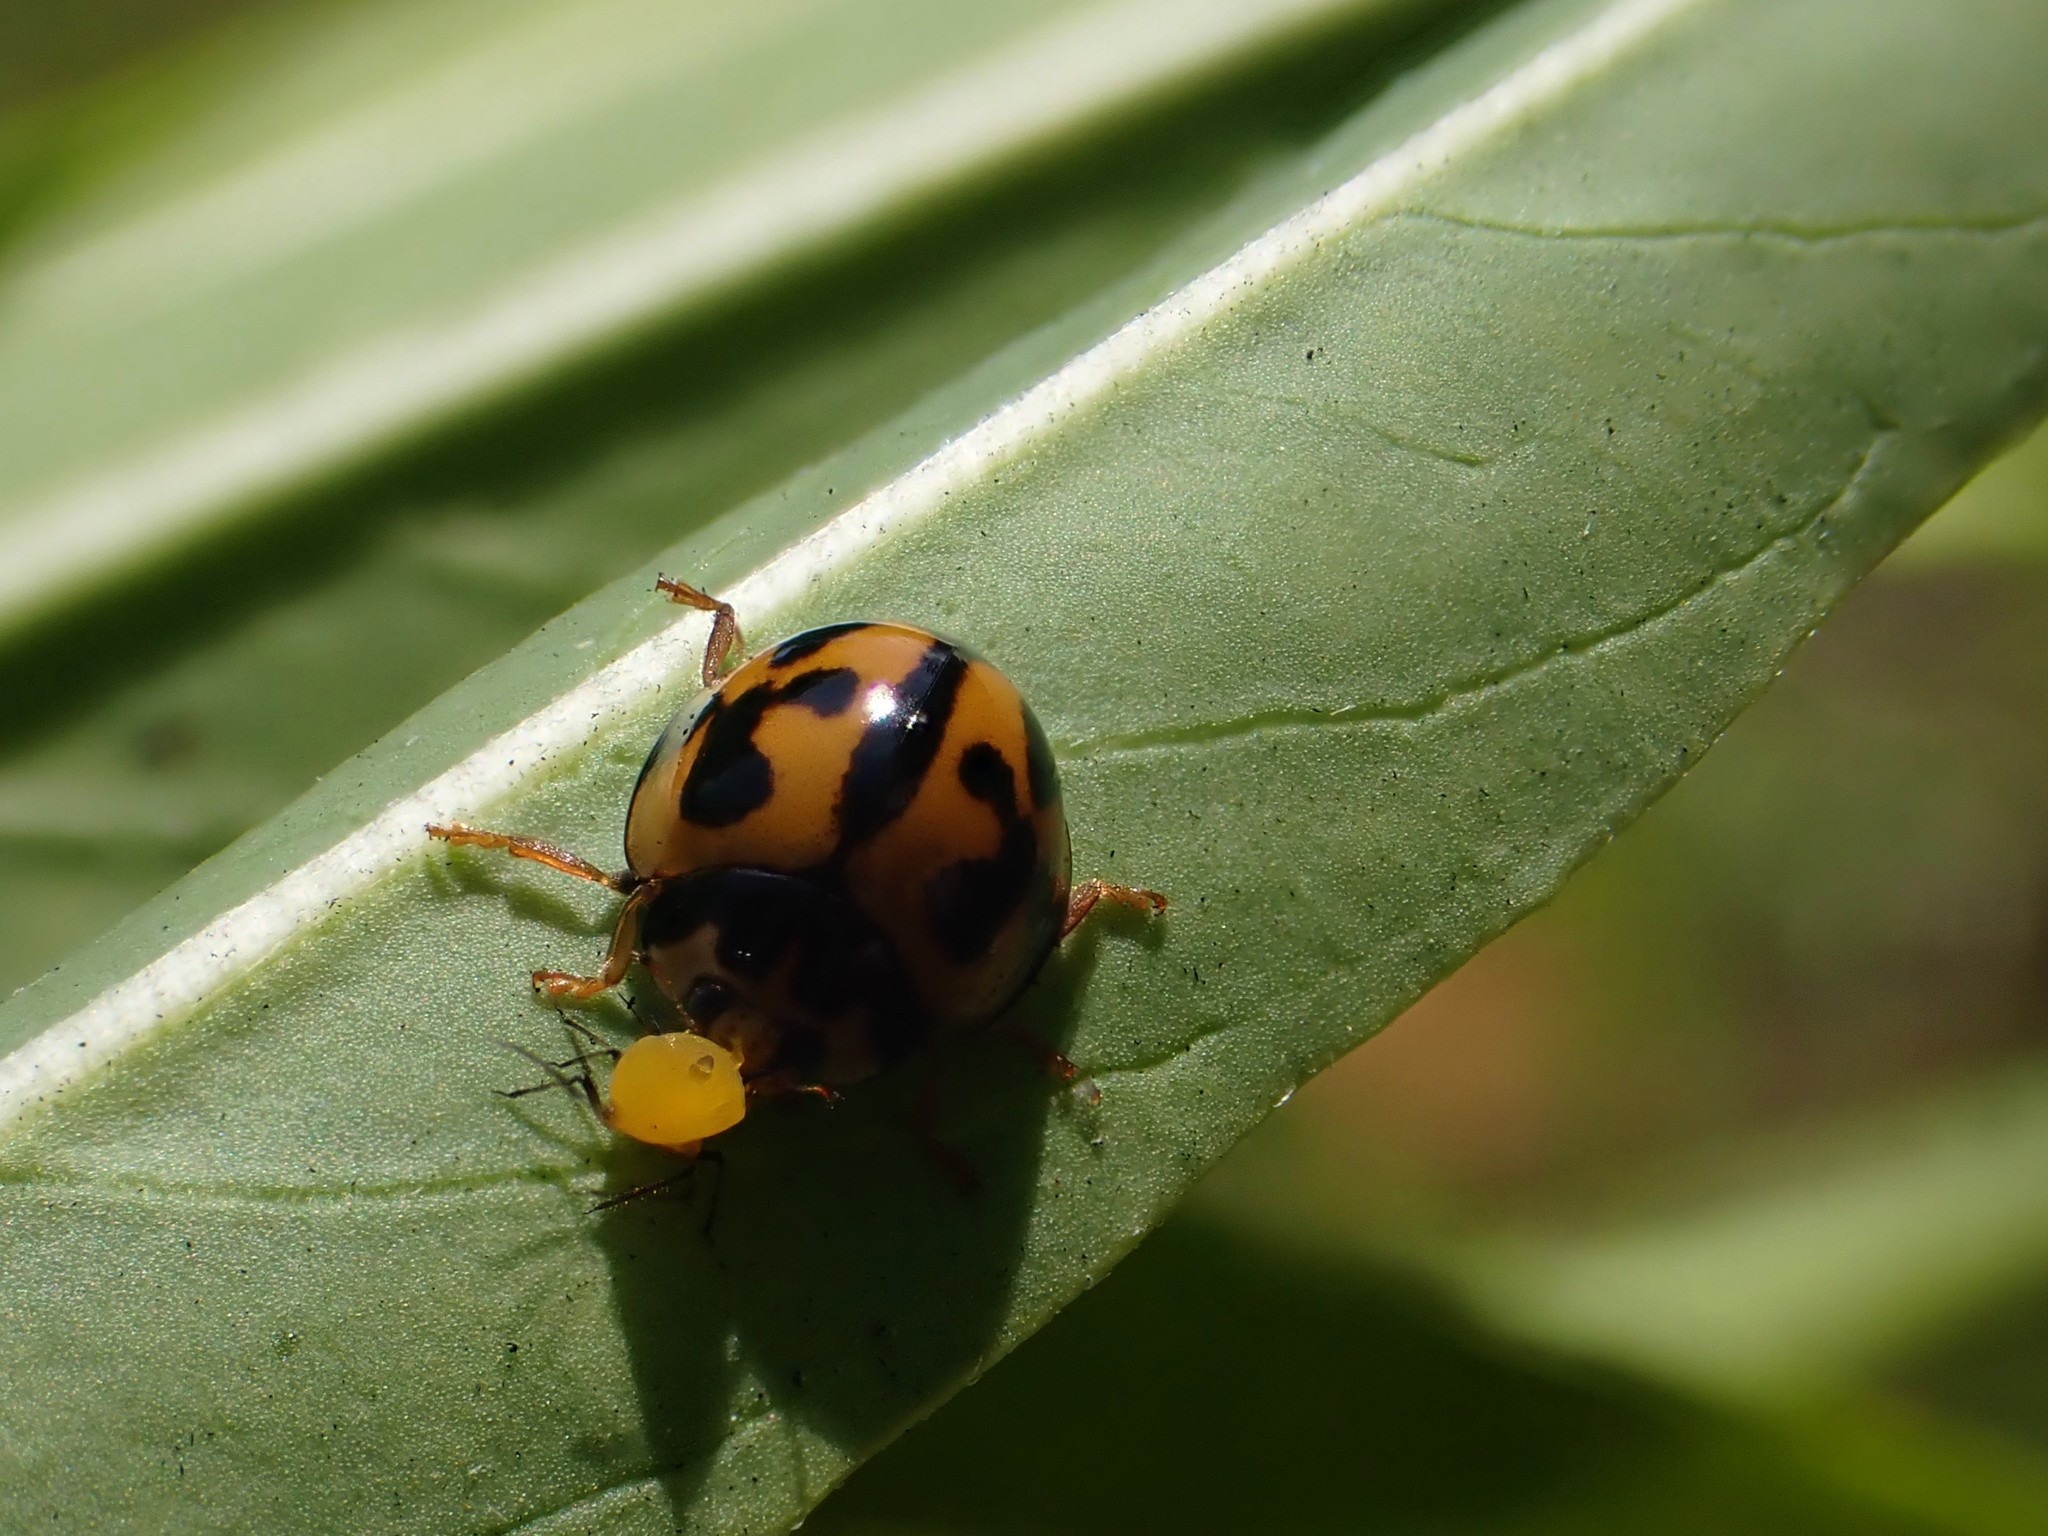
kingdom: Animalia
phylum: Arthropoda
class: Insecta
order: Hemiptera
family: Aphididae
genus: Aphis
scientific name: Aphis nerii
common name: Oleander aphid
